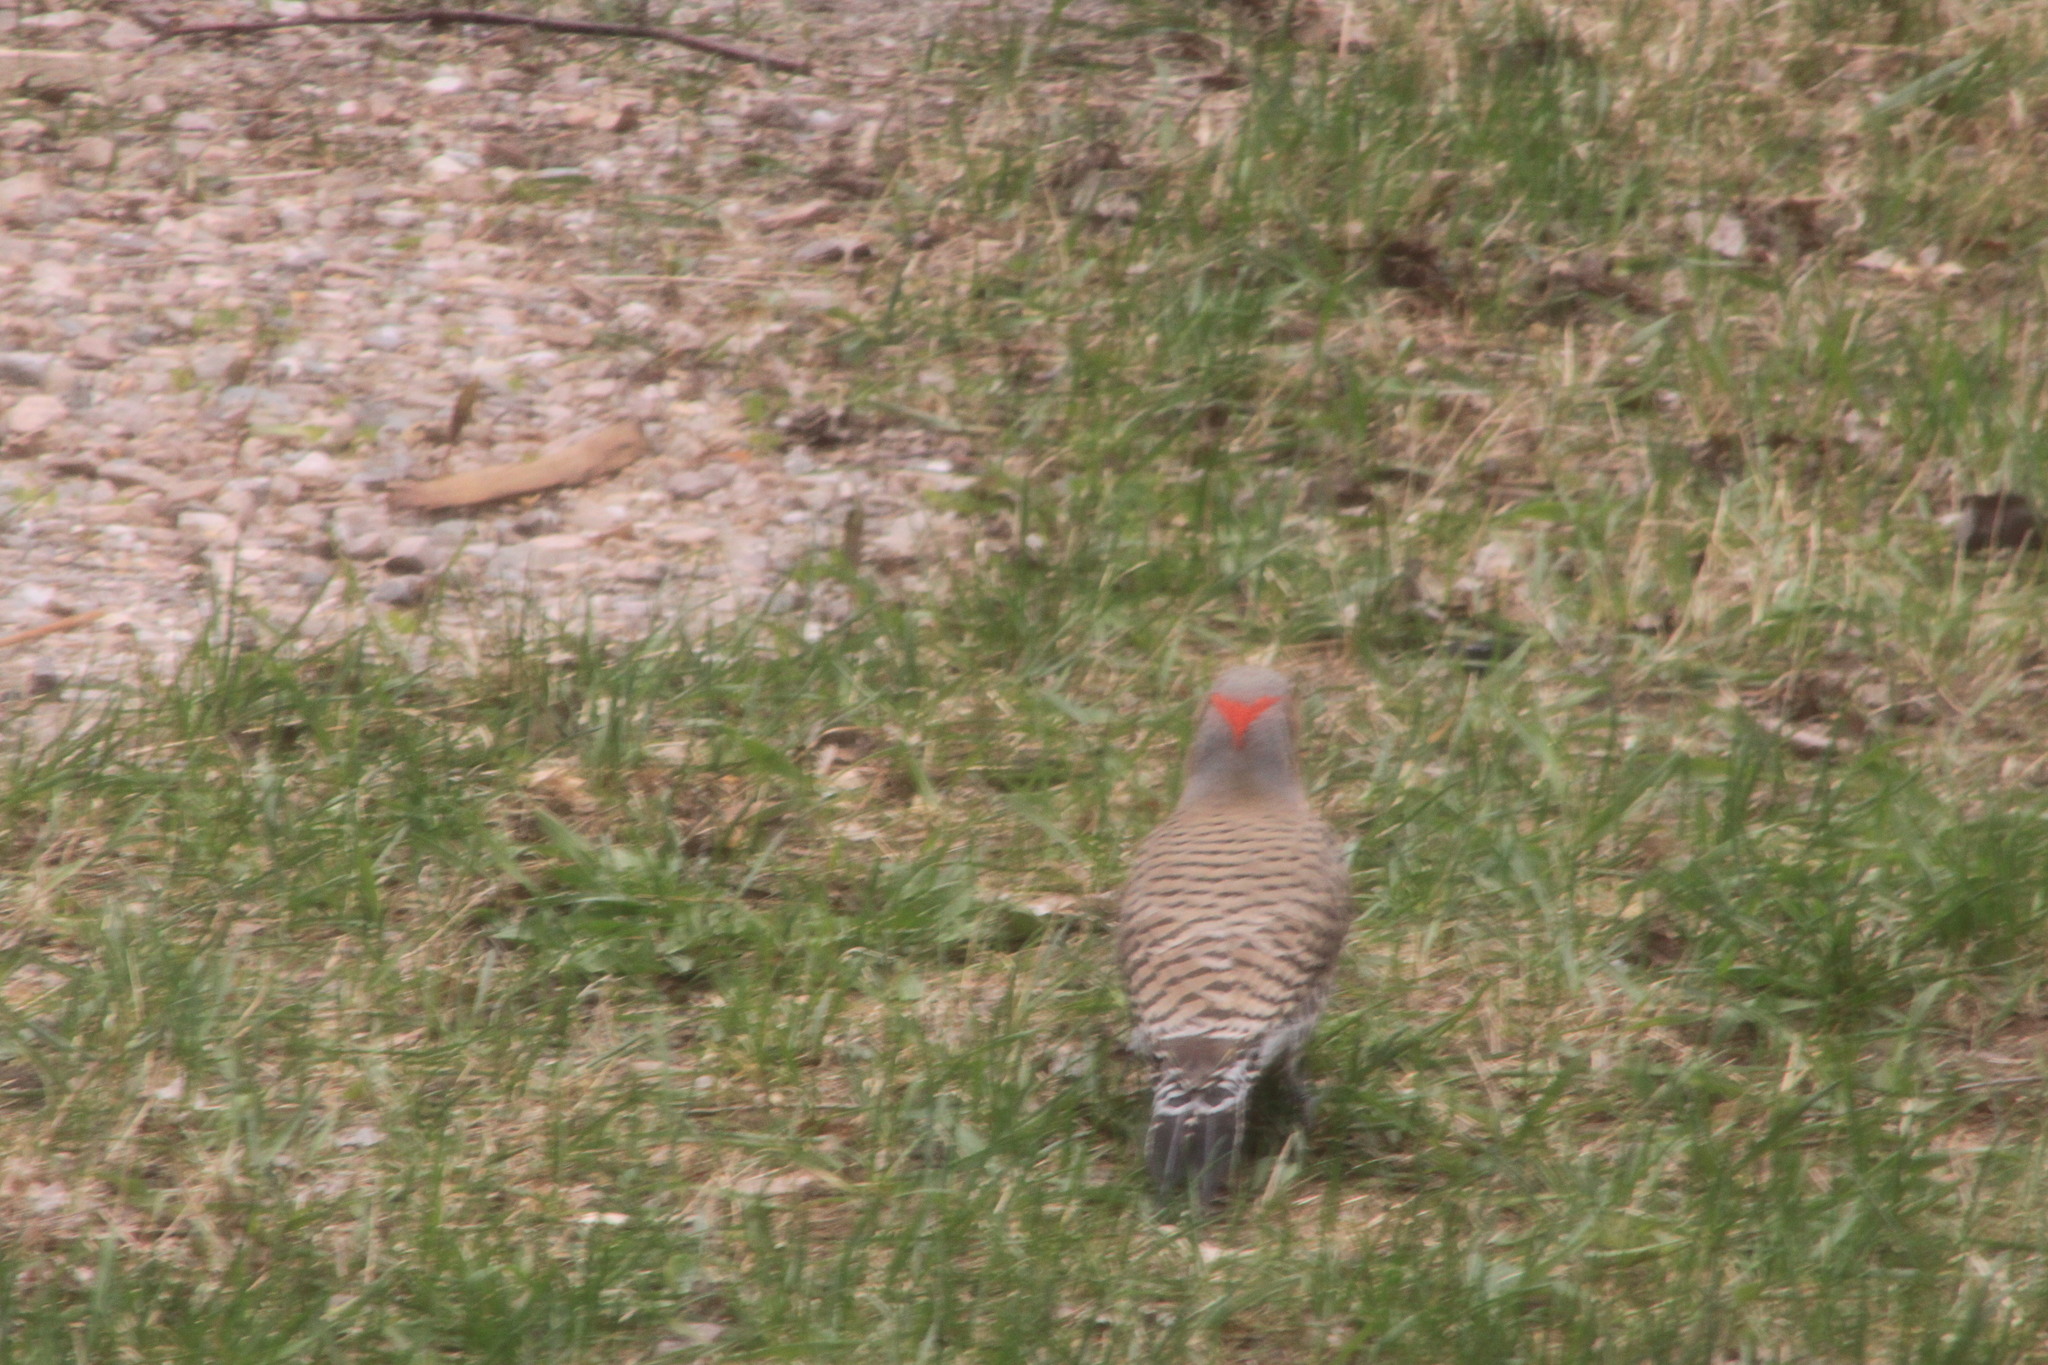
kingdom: Animalia
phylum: Chordata
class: Aves
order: Piciformes
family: Picidae
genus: Colaptes
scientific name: Colaptes auratus
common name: Northern flicker
